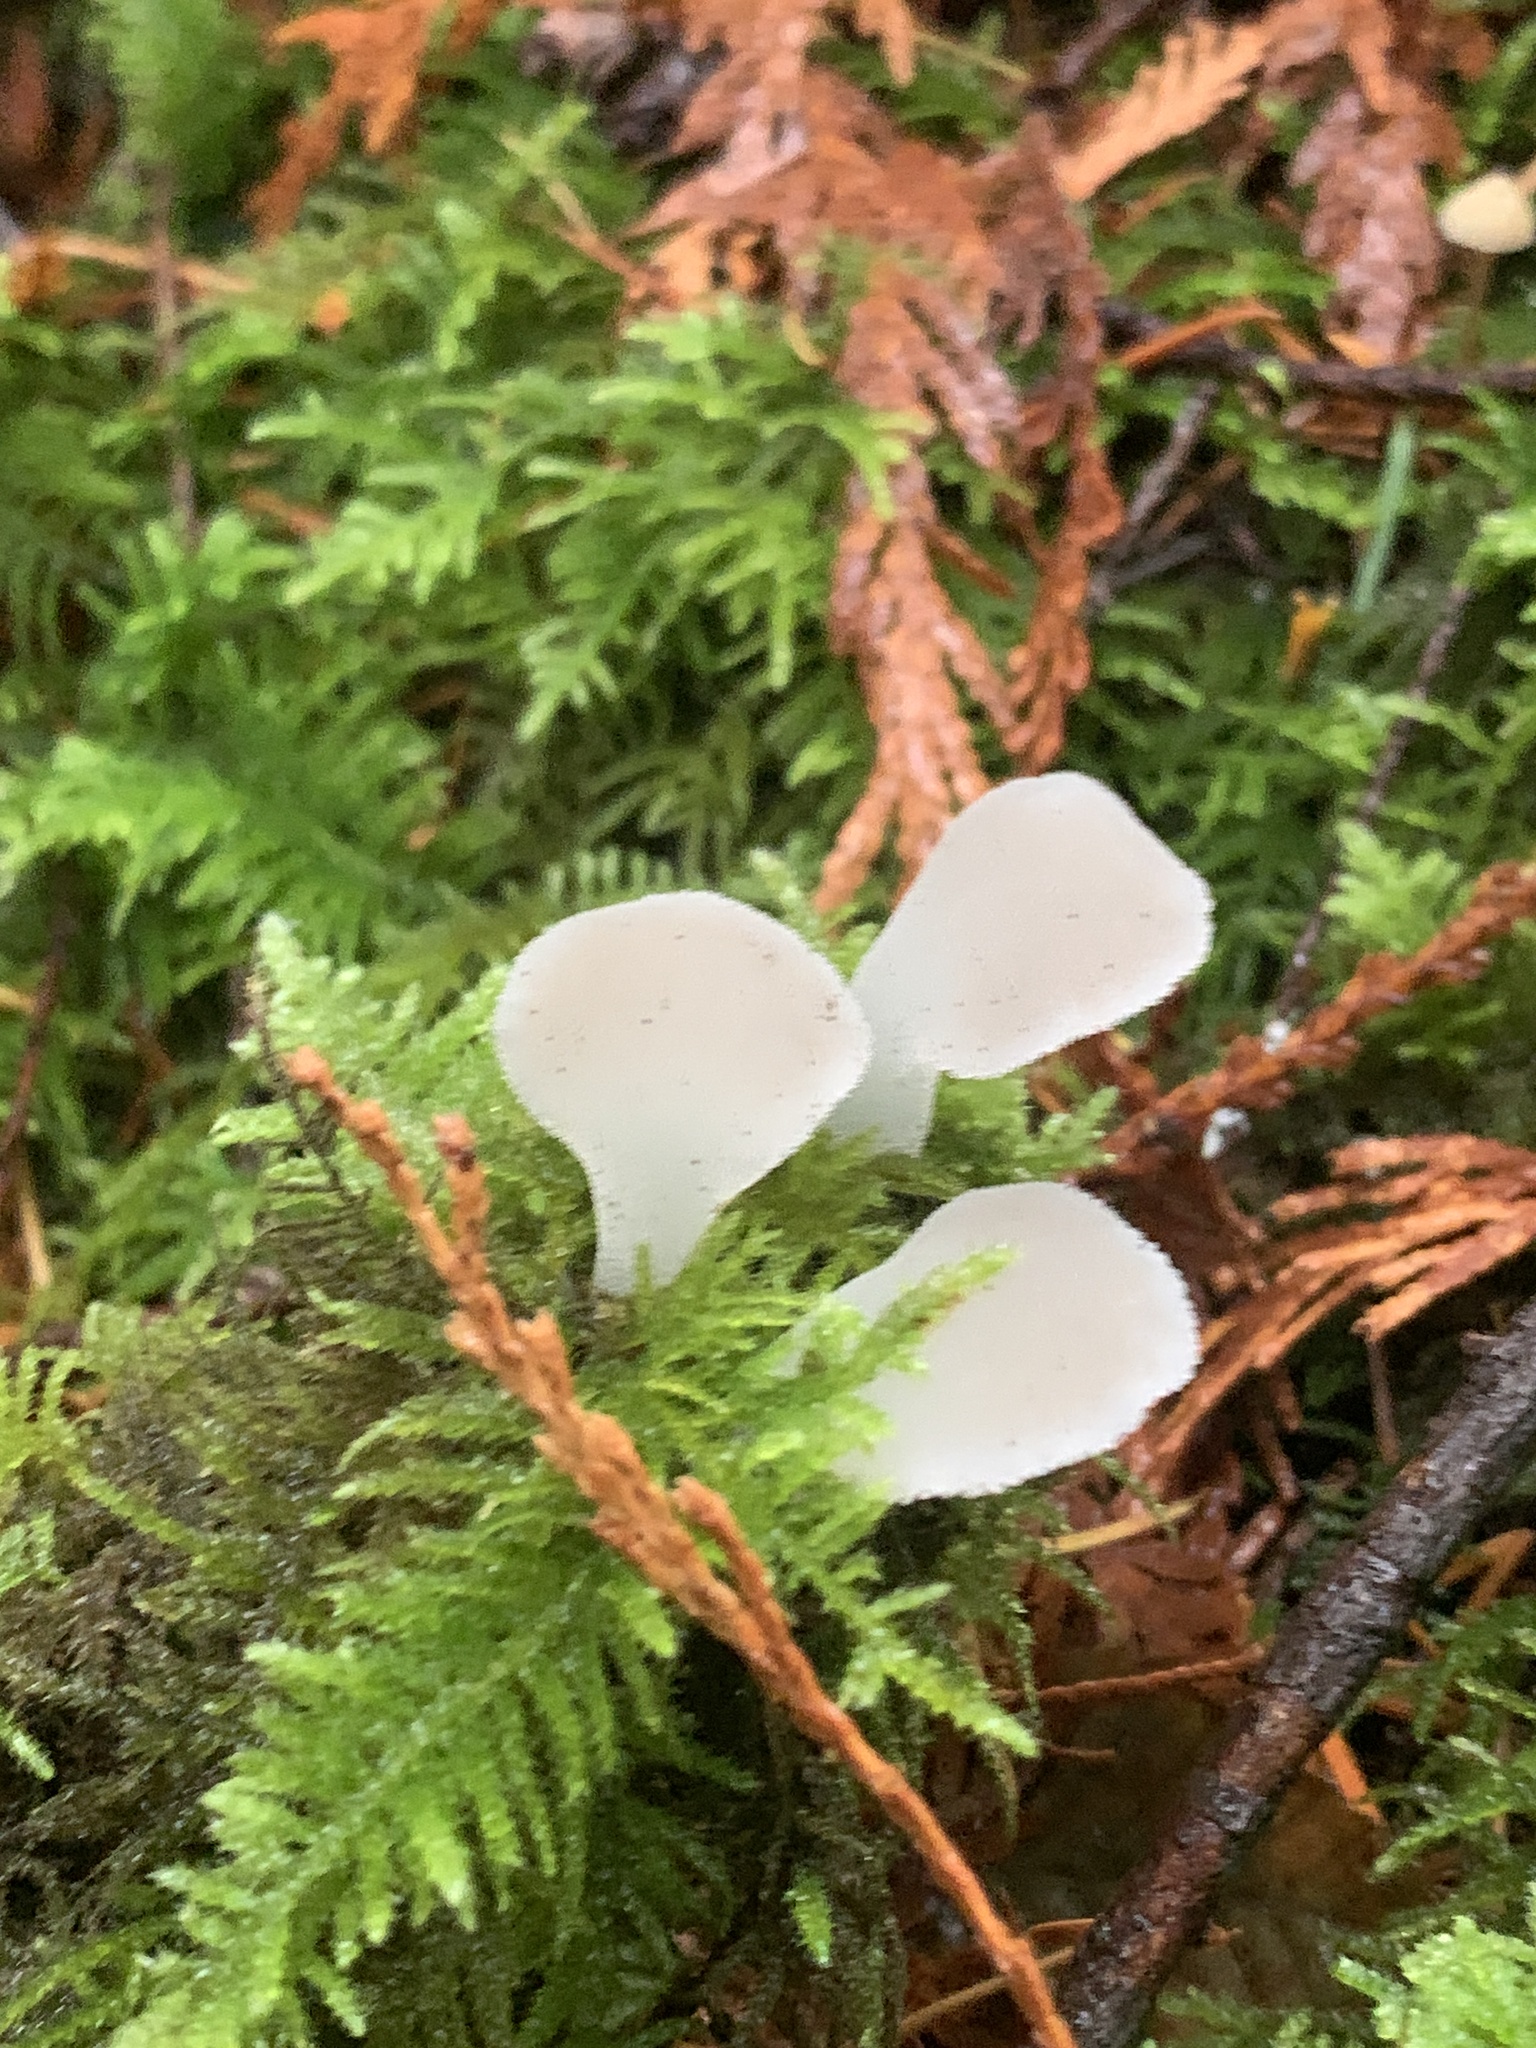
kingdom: Fungi
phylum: Basidiomycota
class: Agaricomycetes
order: Auriculariales
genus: Pseudohydnum
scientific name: Pseudohydnum gelatinosum
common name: Jelly tongue
